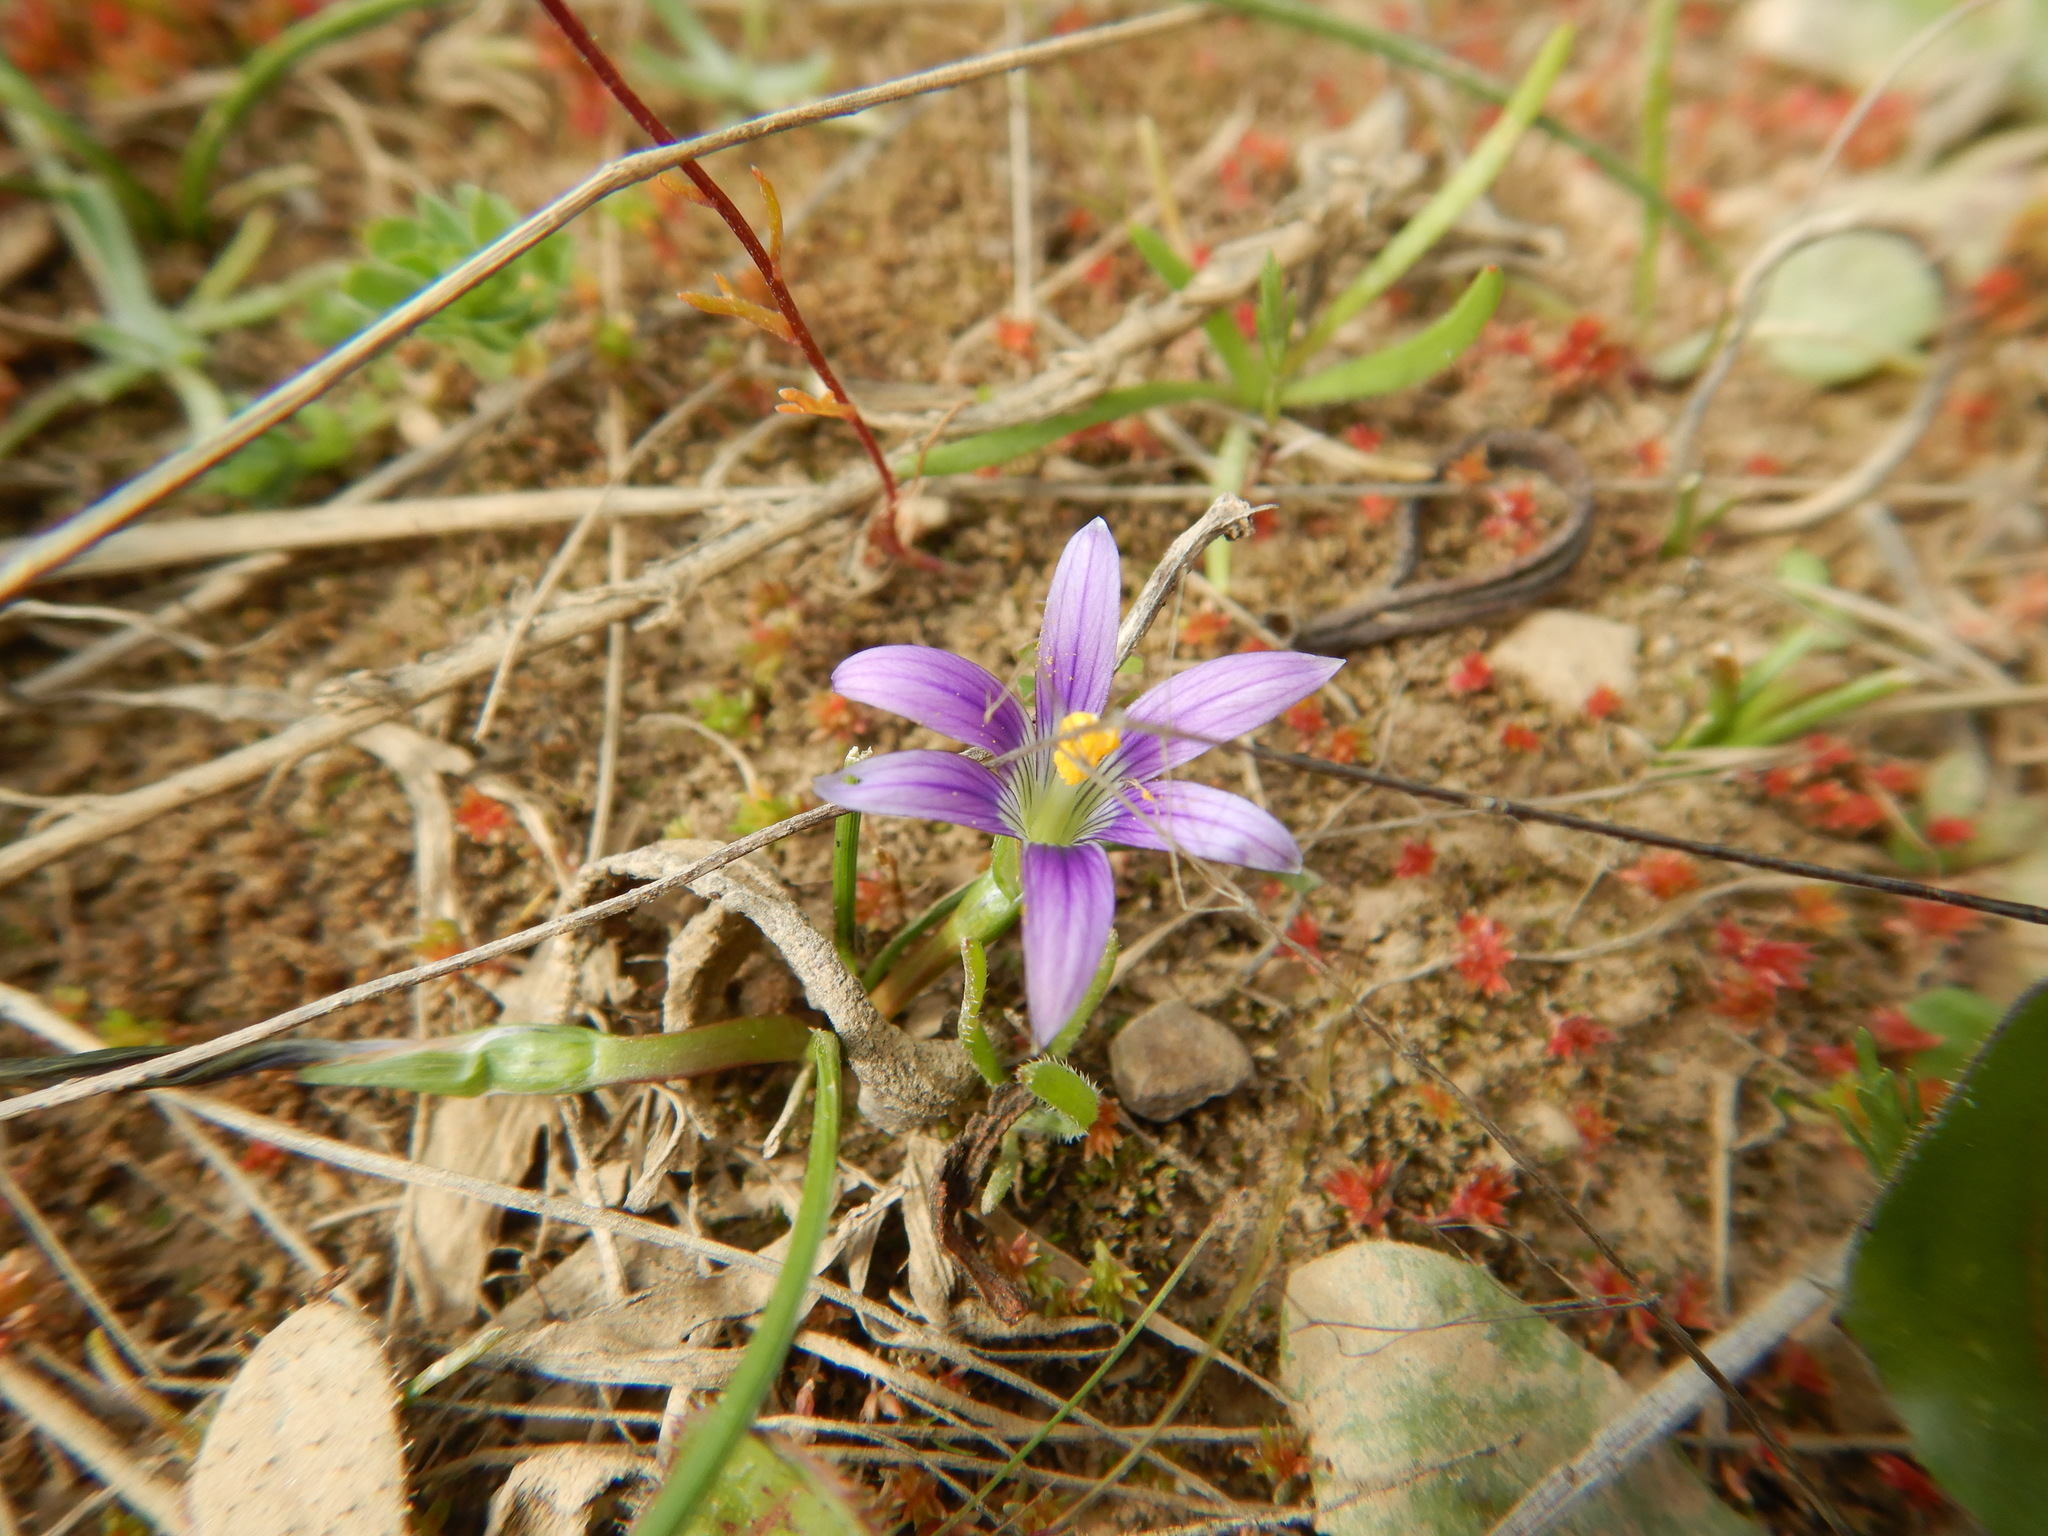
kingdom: Plantae
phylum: Tracheophyta
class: Liliopsida
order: Asparagales
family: Iridaceae
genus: Romulea
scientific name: Romulea ramiflora
